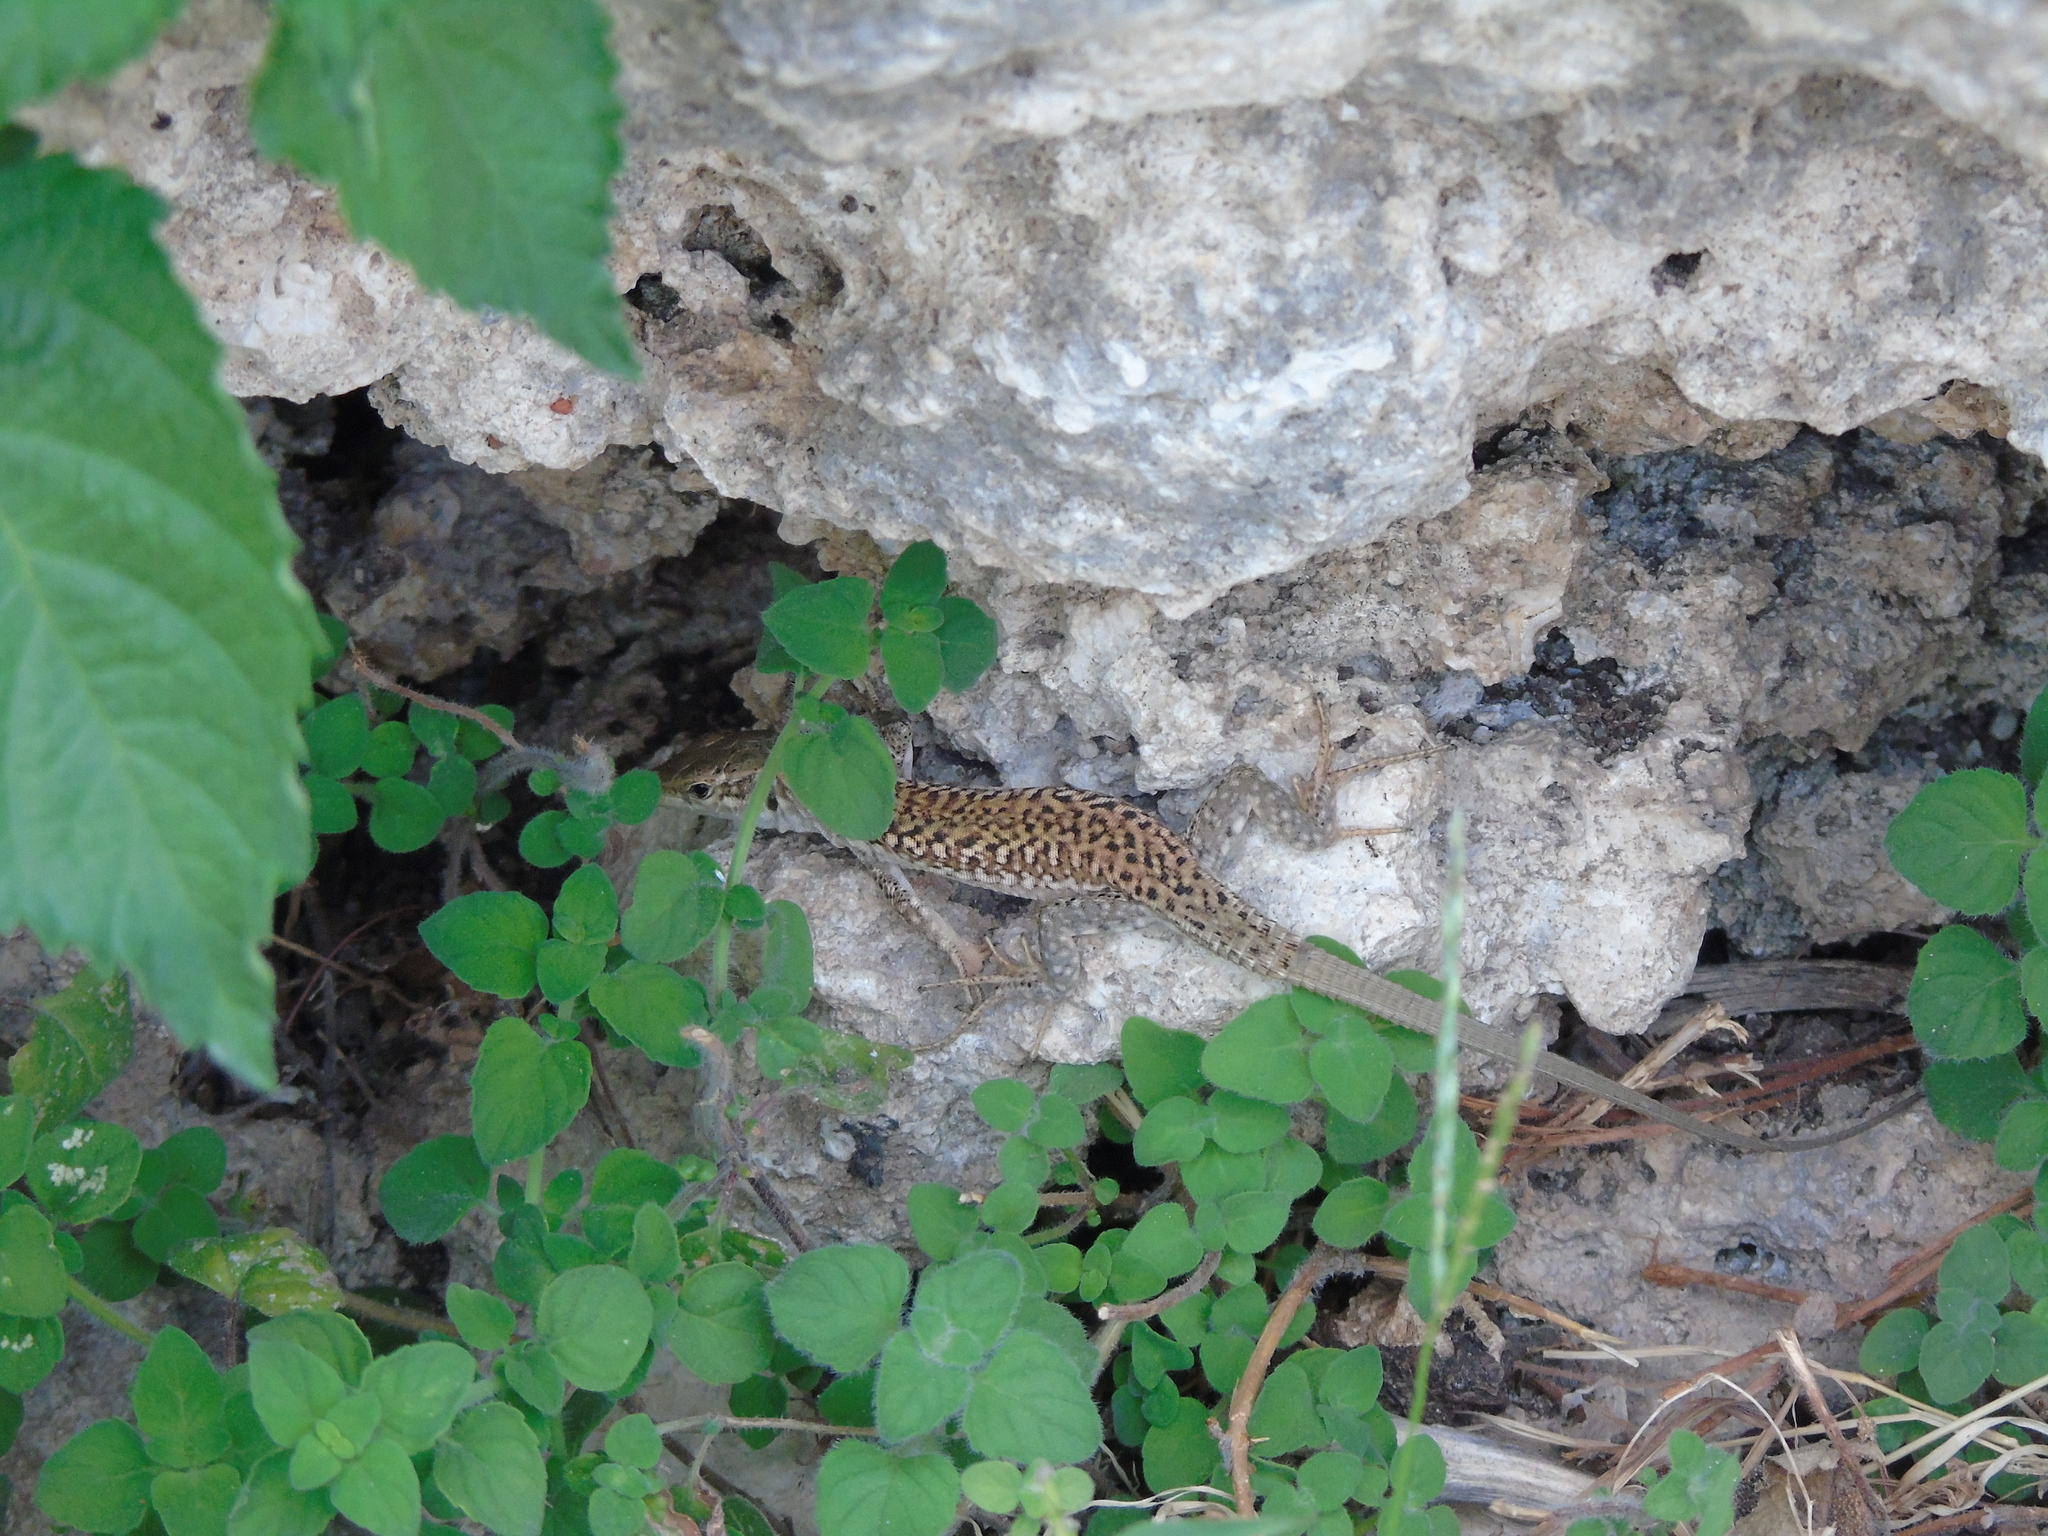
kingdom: Animalia
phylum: Chordata
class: Squamata
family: Lacertidae
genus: Podarcis
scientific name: Podarcis siculus
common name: Italian wall lizard
